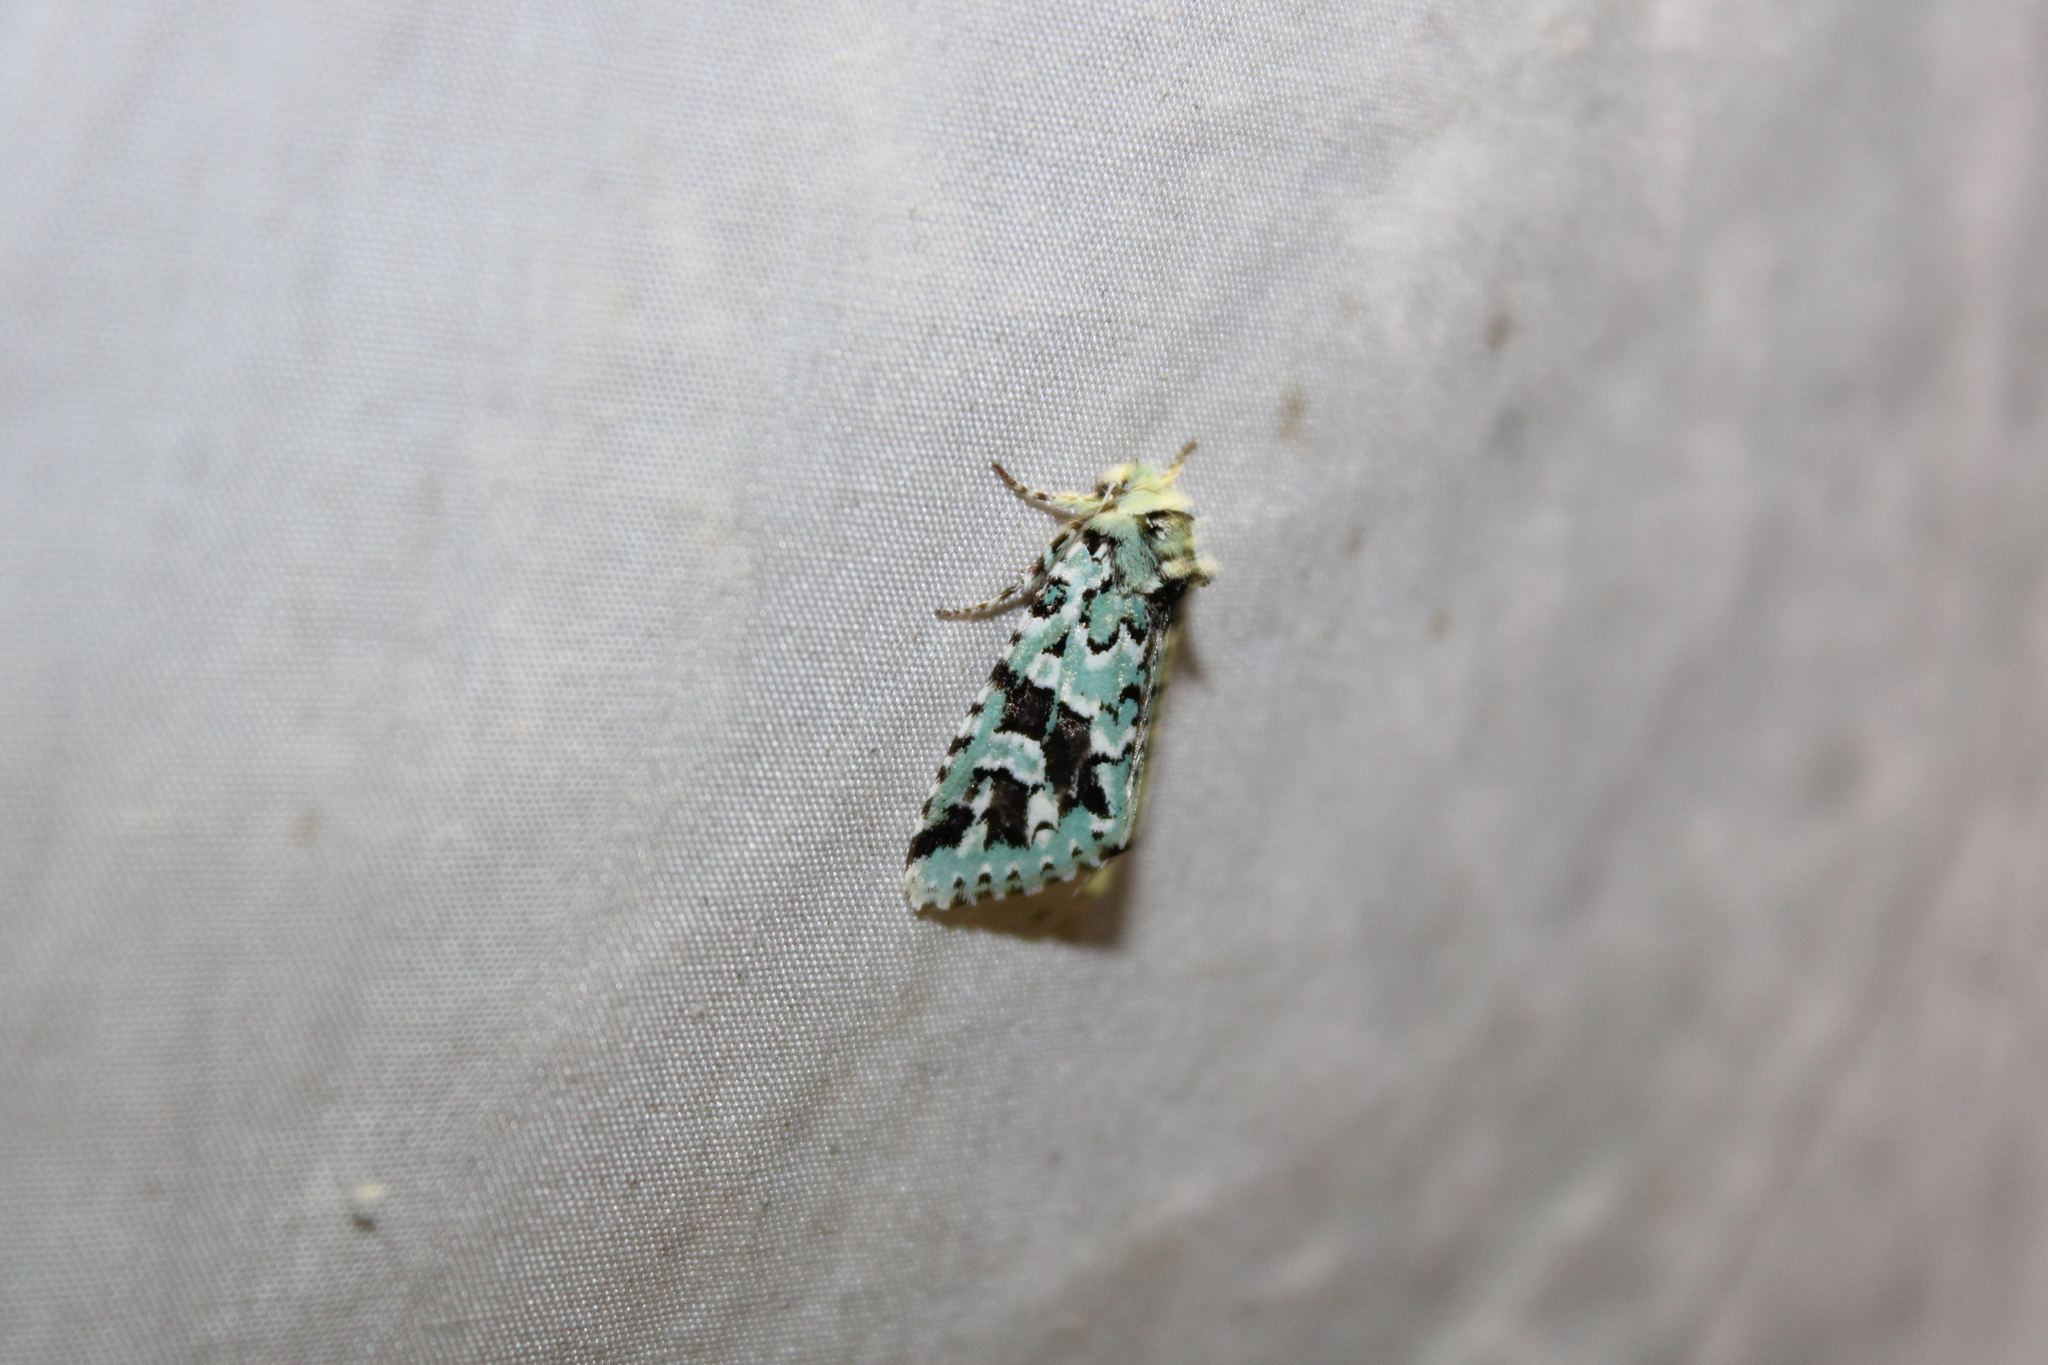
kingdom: Animalia
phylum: Arthropoda
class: Insecta
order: Lepidoptera
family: Noctuidae
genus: Feralia
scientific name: Feralia comstocki
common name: Comstock's sallow
